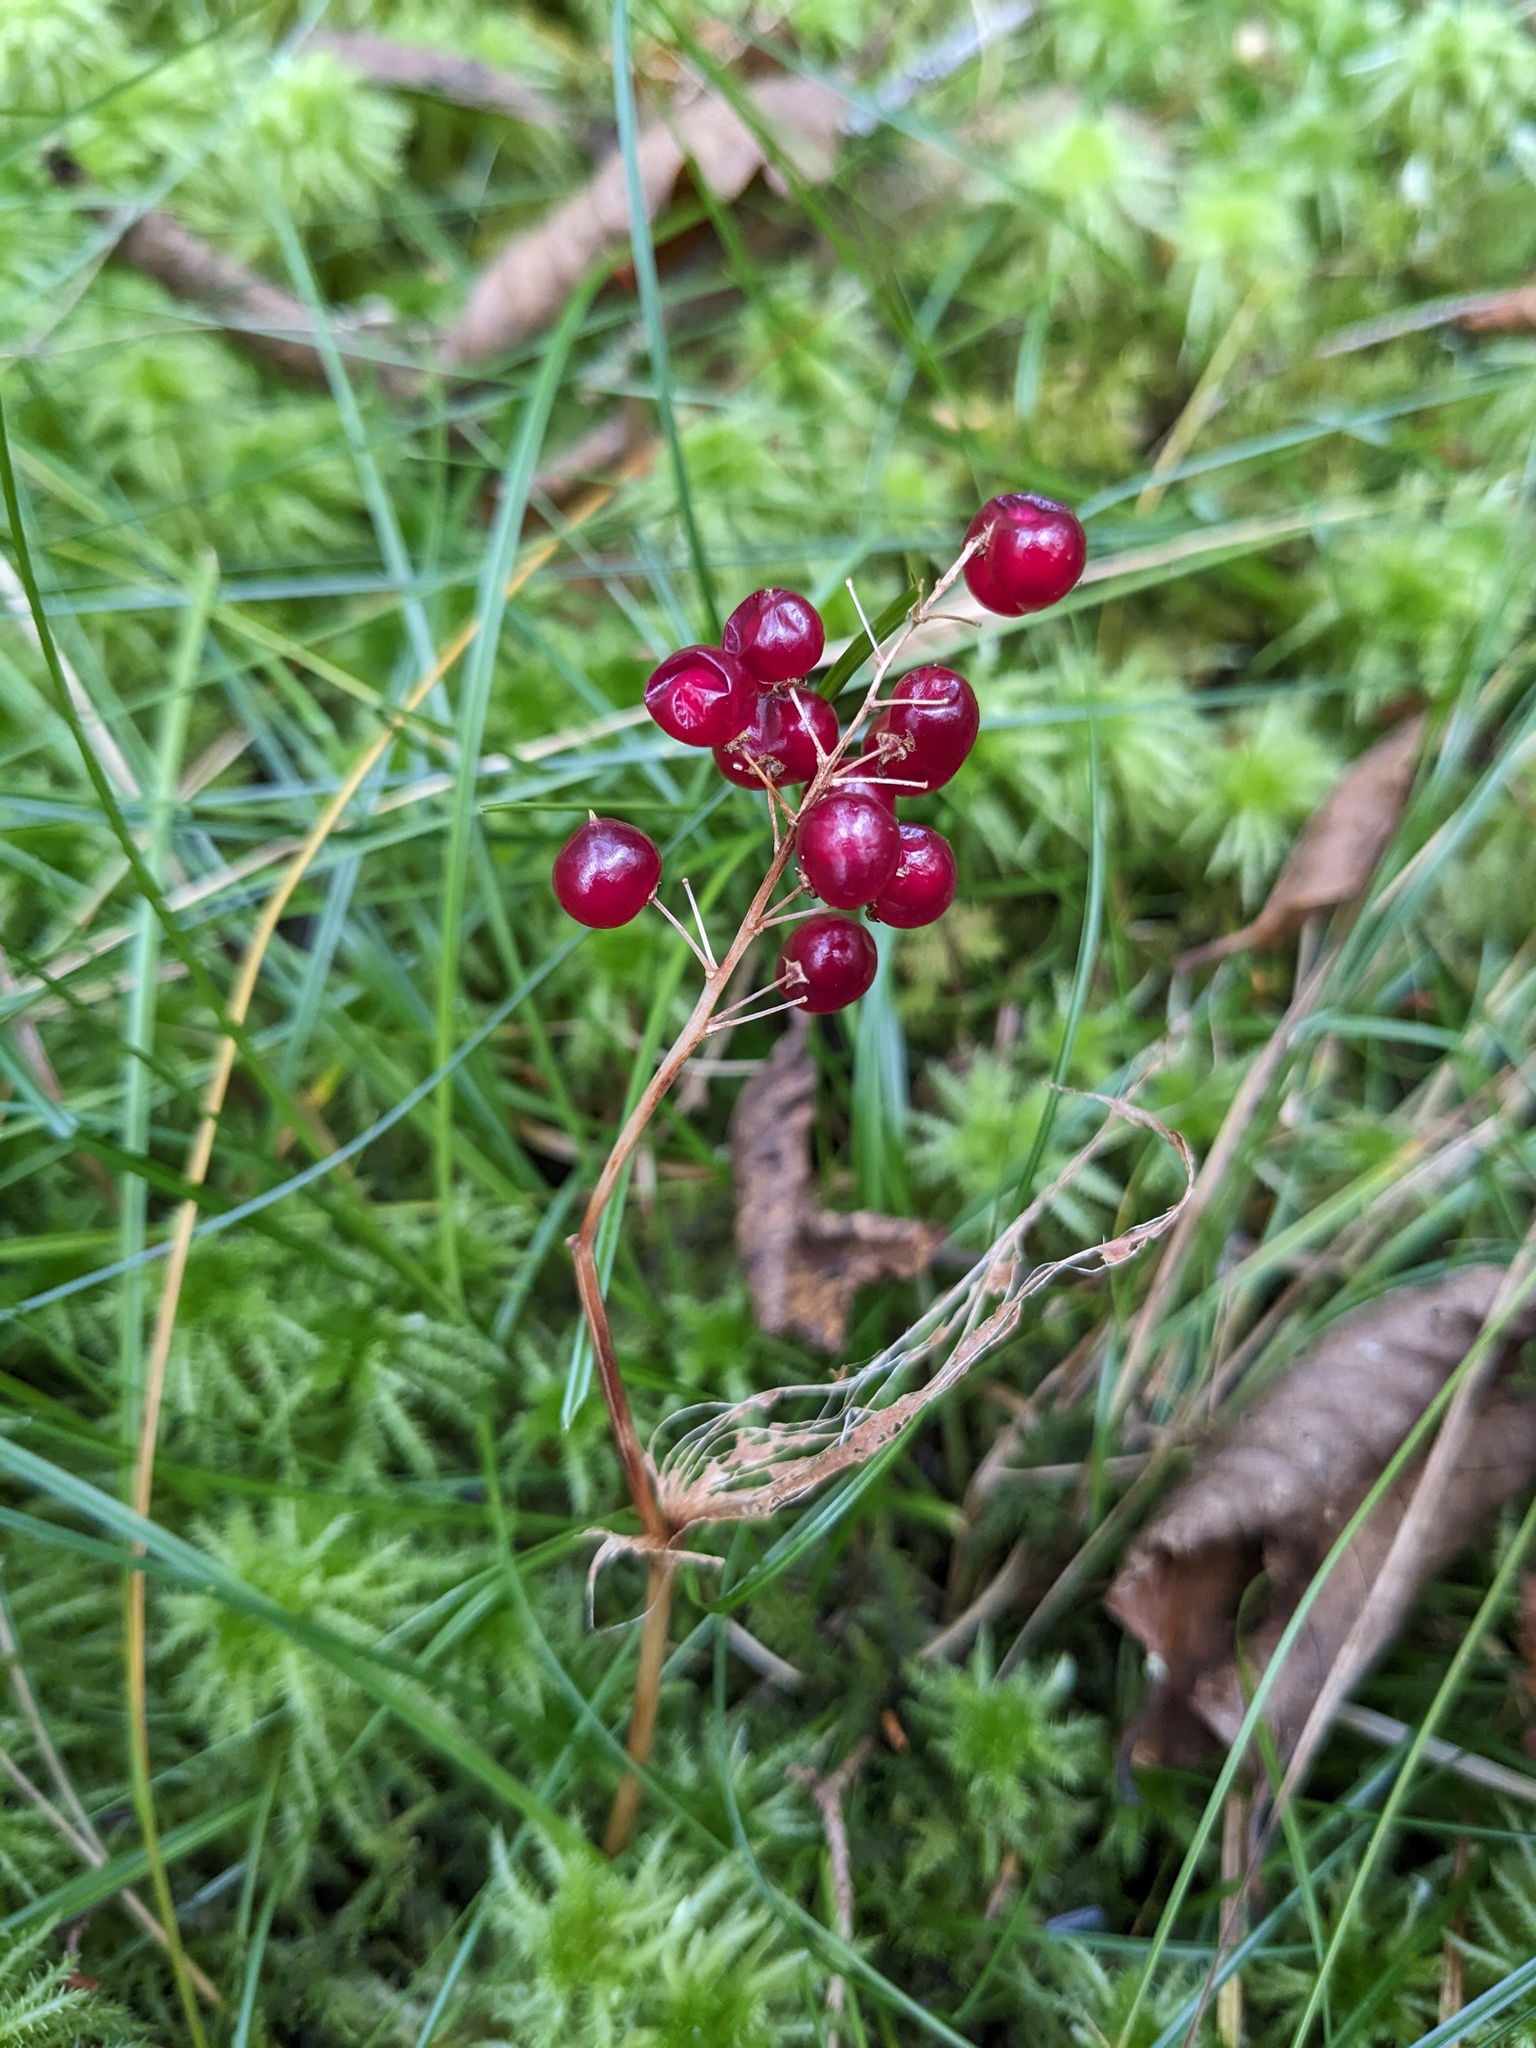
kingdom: Plantae
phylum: Tracheophyta
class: Liliopsida
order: Asparagales
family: Asparagaceae
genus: Maianthemum
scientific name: Maianthemum canadense
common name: False lily-of-the-valley
